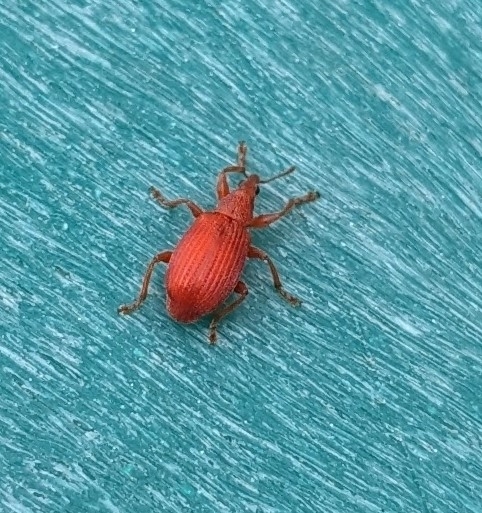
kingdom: Animalia
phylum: Arthropoda
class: Insecta
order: Coleoptera
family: Apionidae
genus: Apion
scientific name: Apion frumentarium
